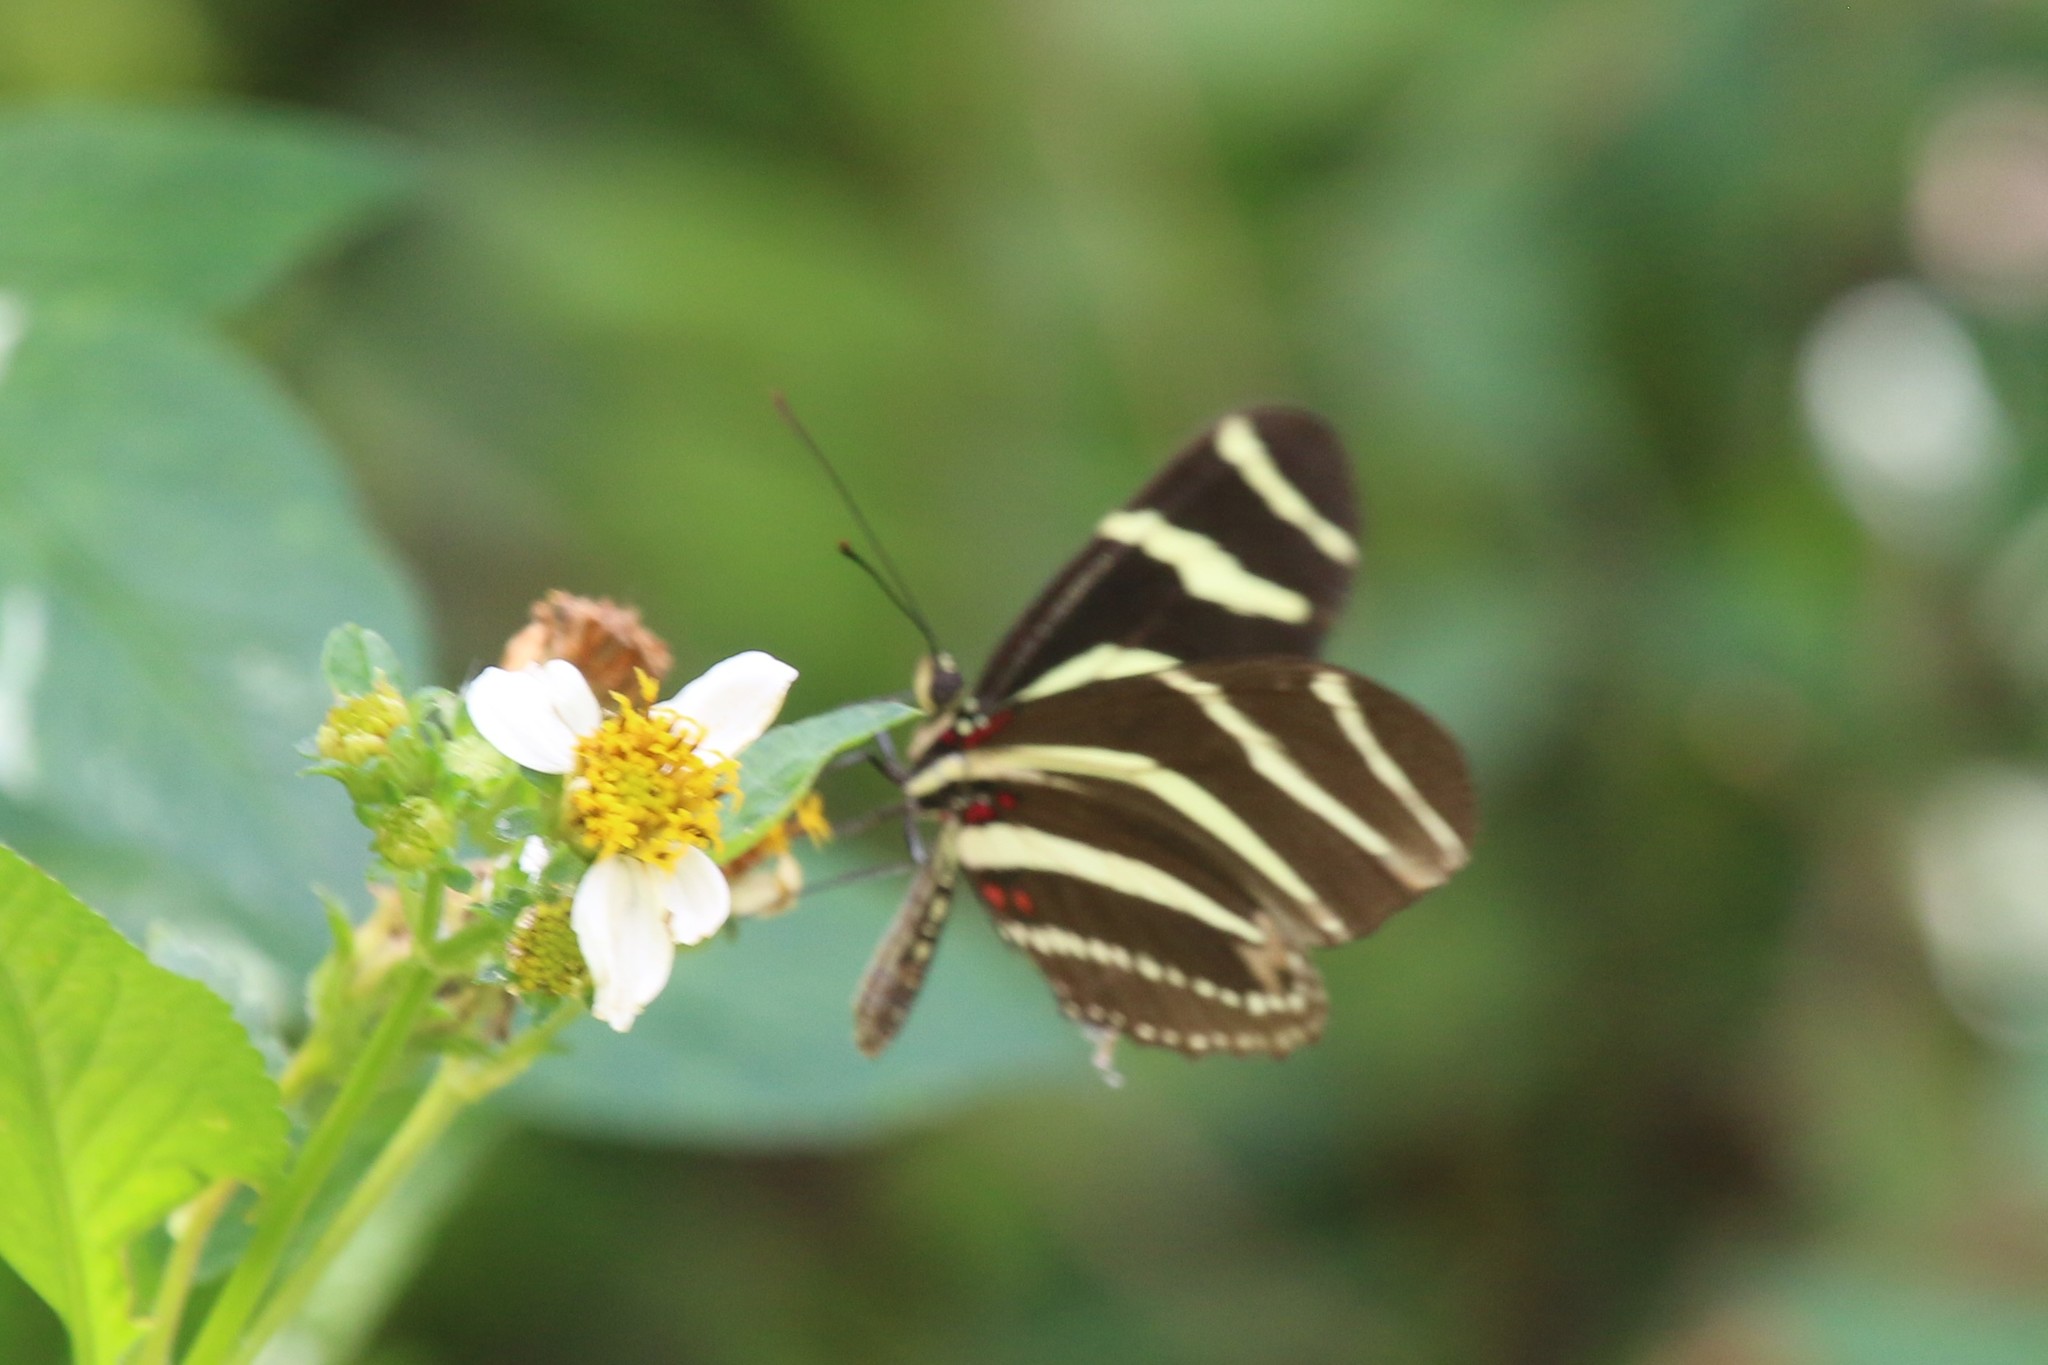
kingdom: Animalia
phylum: Arthropoda
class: Insecta
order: Lepidoptera
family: Nymphalidae
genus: Heliconius
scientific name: Heliconius charithonia
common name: Zebra long wing
